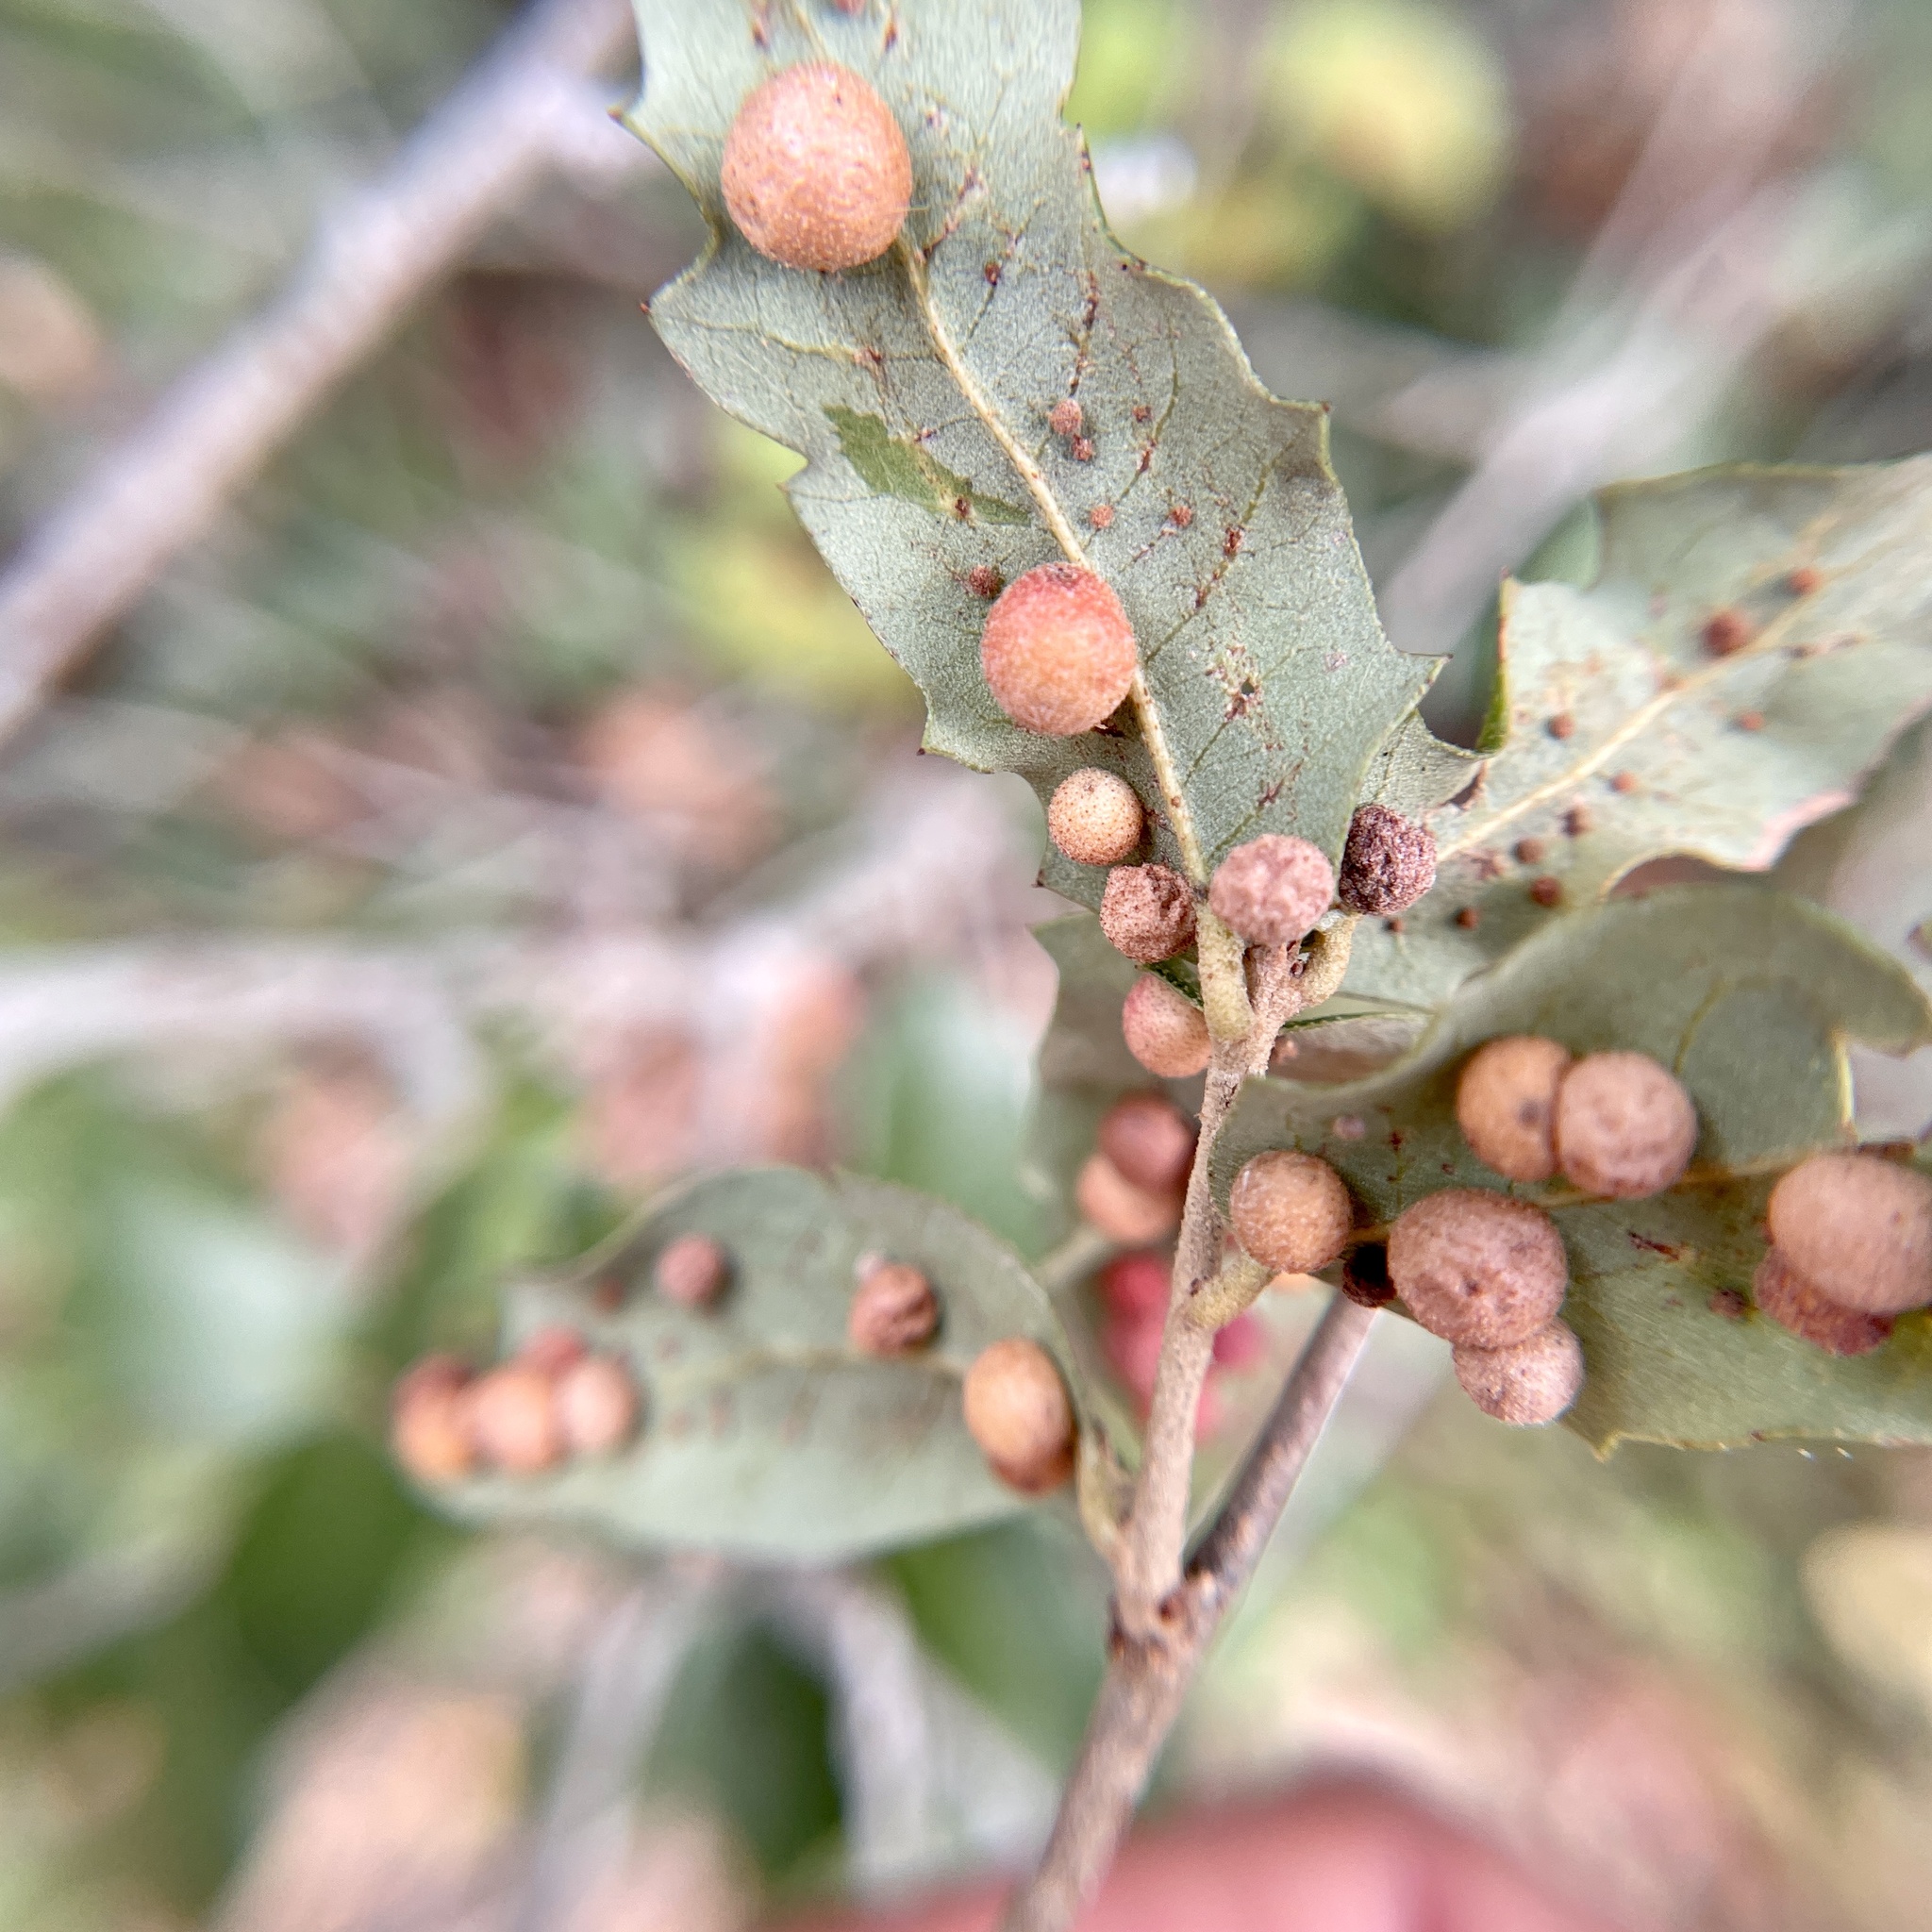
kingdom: Animalia
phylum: Arthropoda
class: Insecta
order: Hymenoptera
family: Cynipidae
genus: Belonocnema
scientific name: Belonocnema kinseyi
